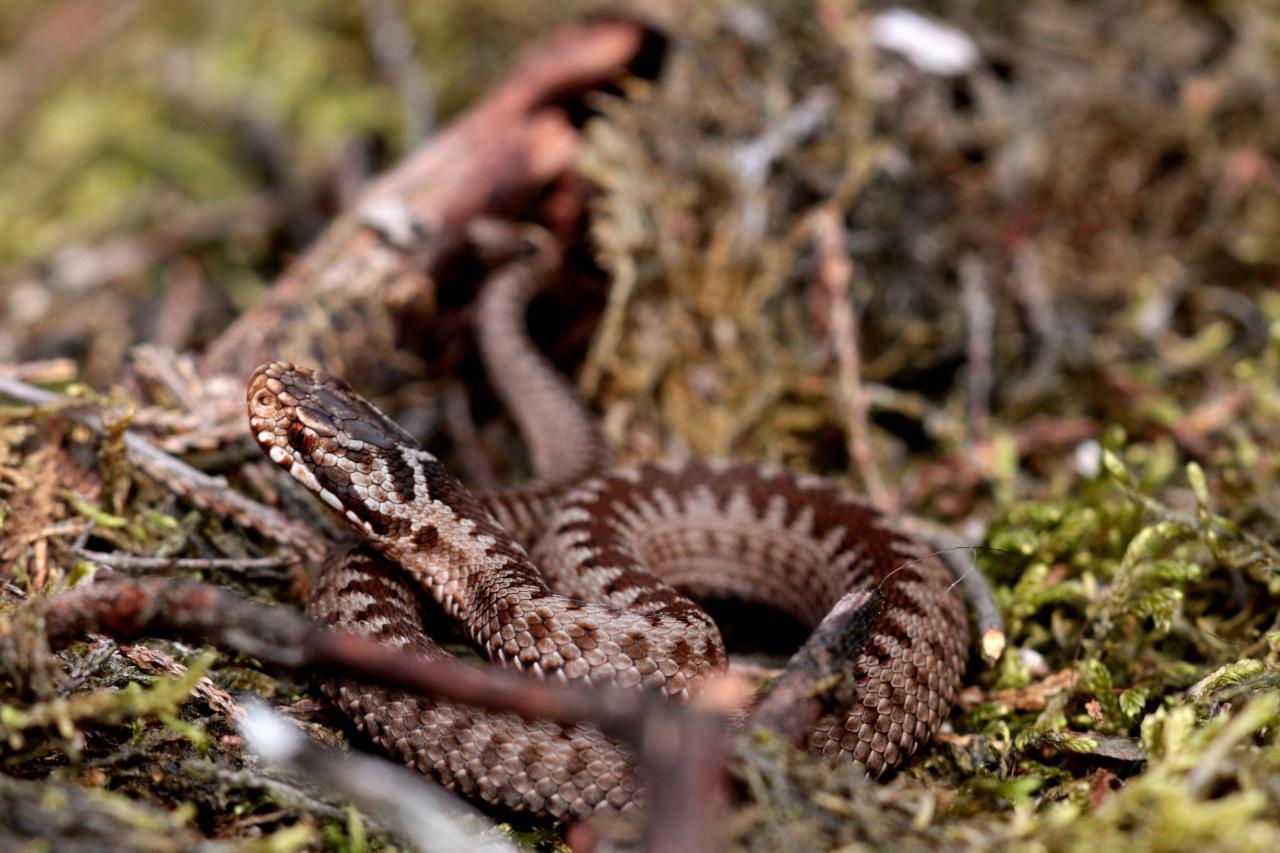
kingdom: Animalia
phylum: Chordata
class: Squamata
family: Viperidae
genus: Vipera
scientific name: Vipera berus
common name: Adder
